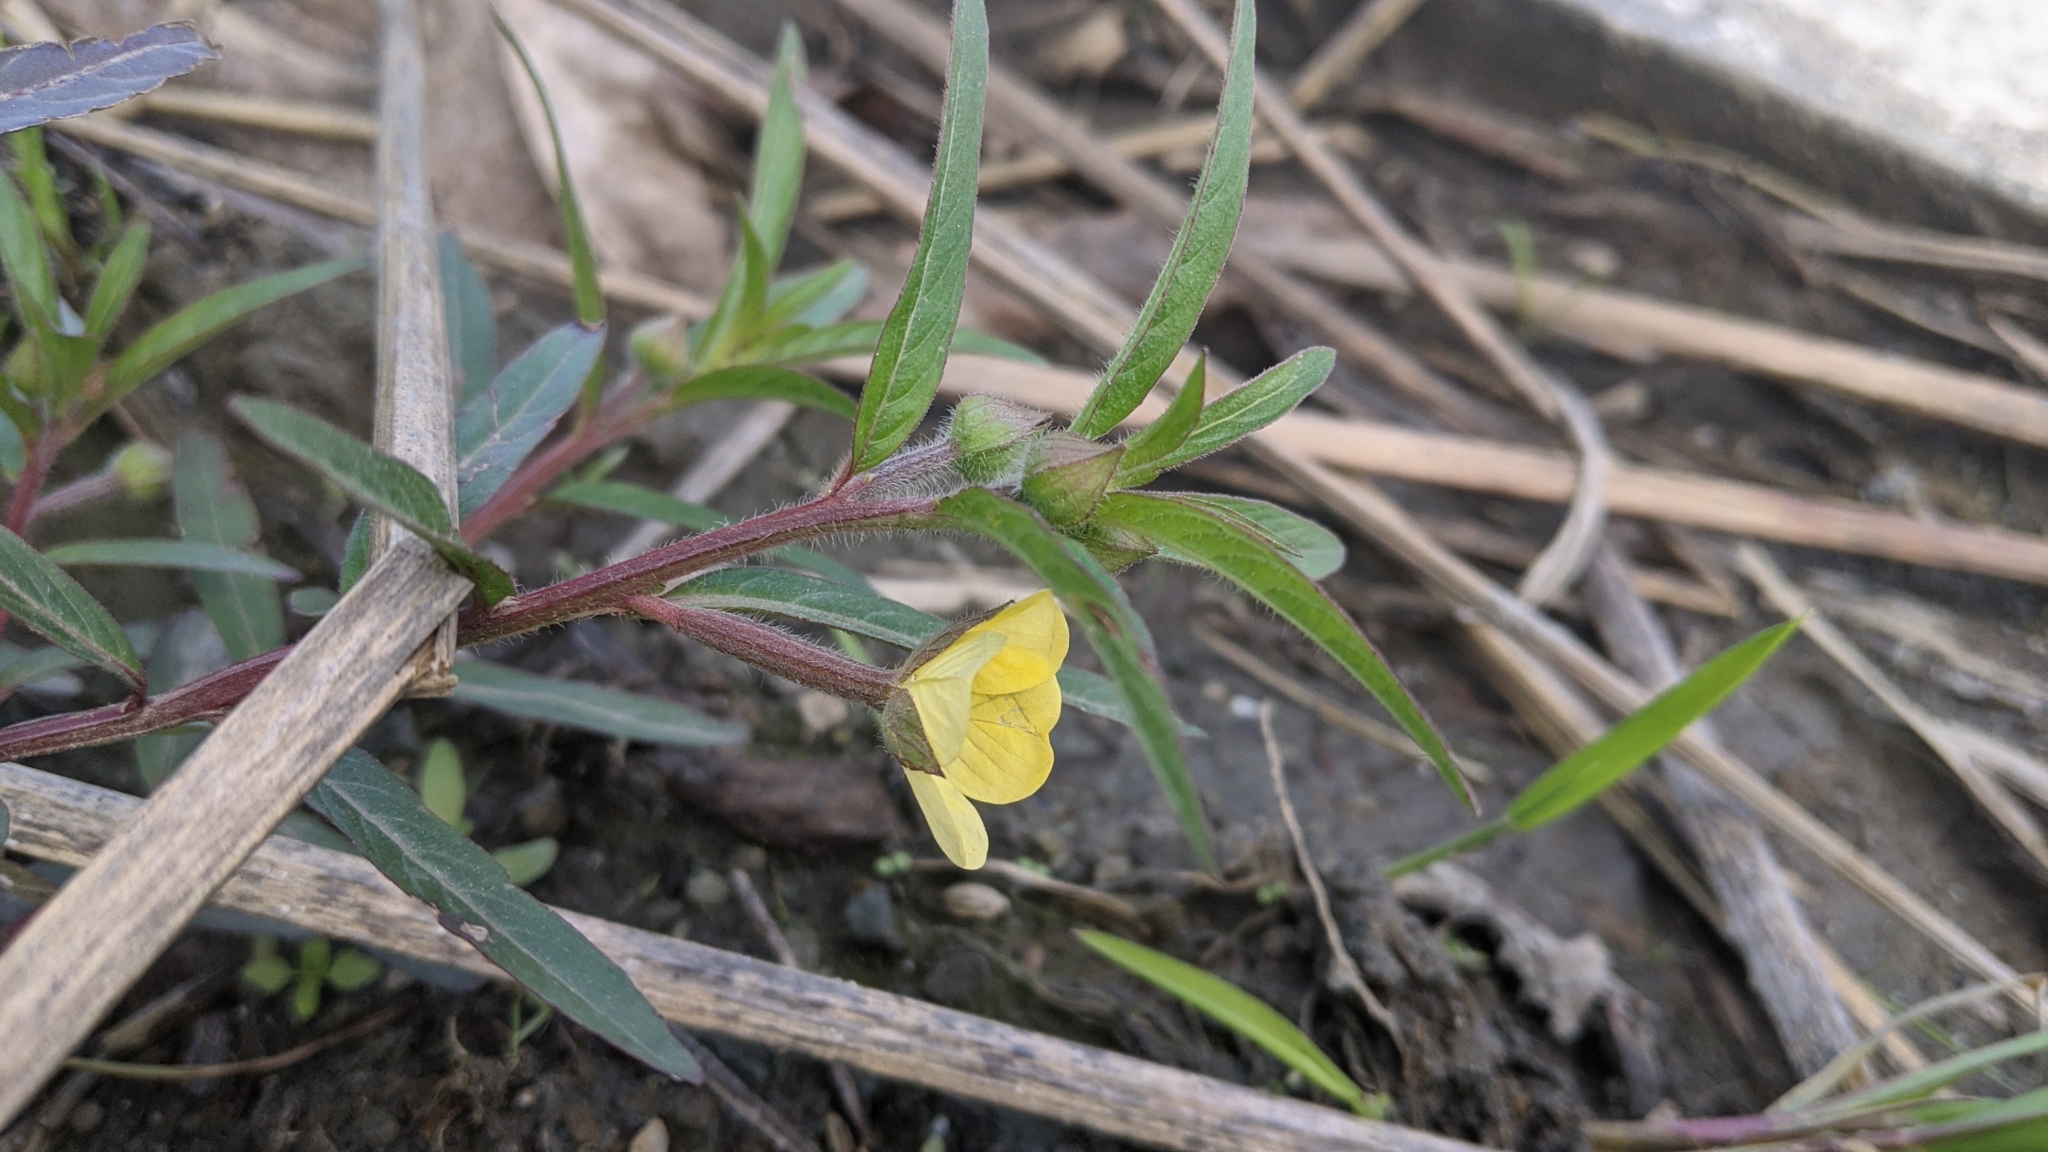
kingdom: Plantae
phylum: Tracheophyta
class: Magnoliopsida
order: Myrtales
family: Onagraceae
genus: Ludwigia
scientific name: Ludwigia octovalvis
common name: Water-primrose
